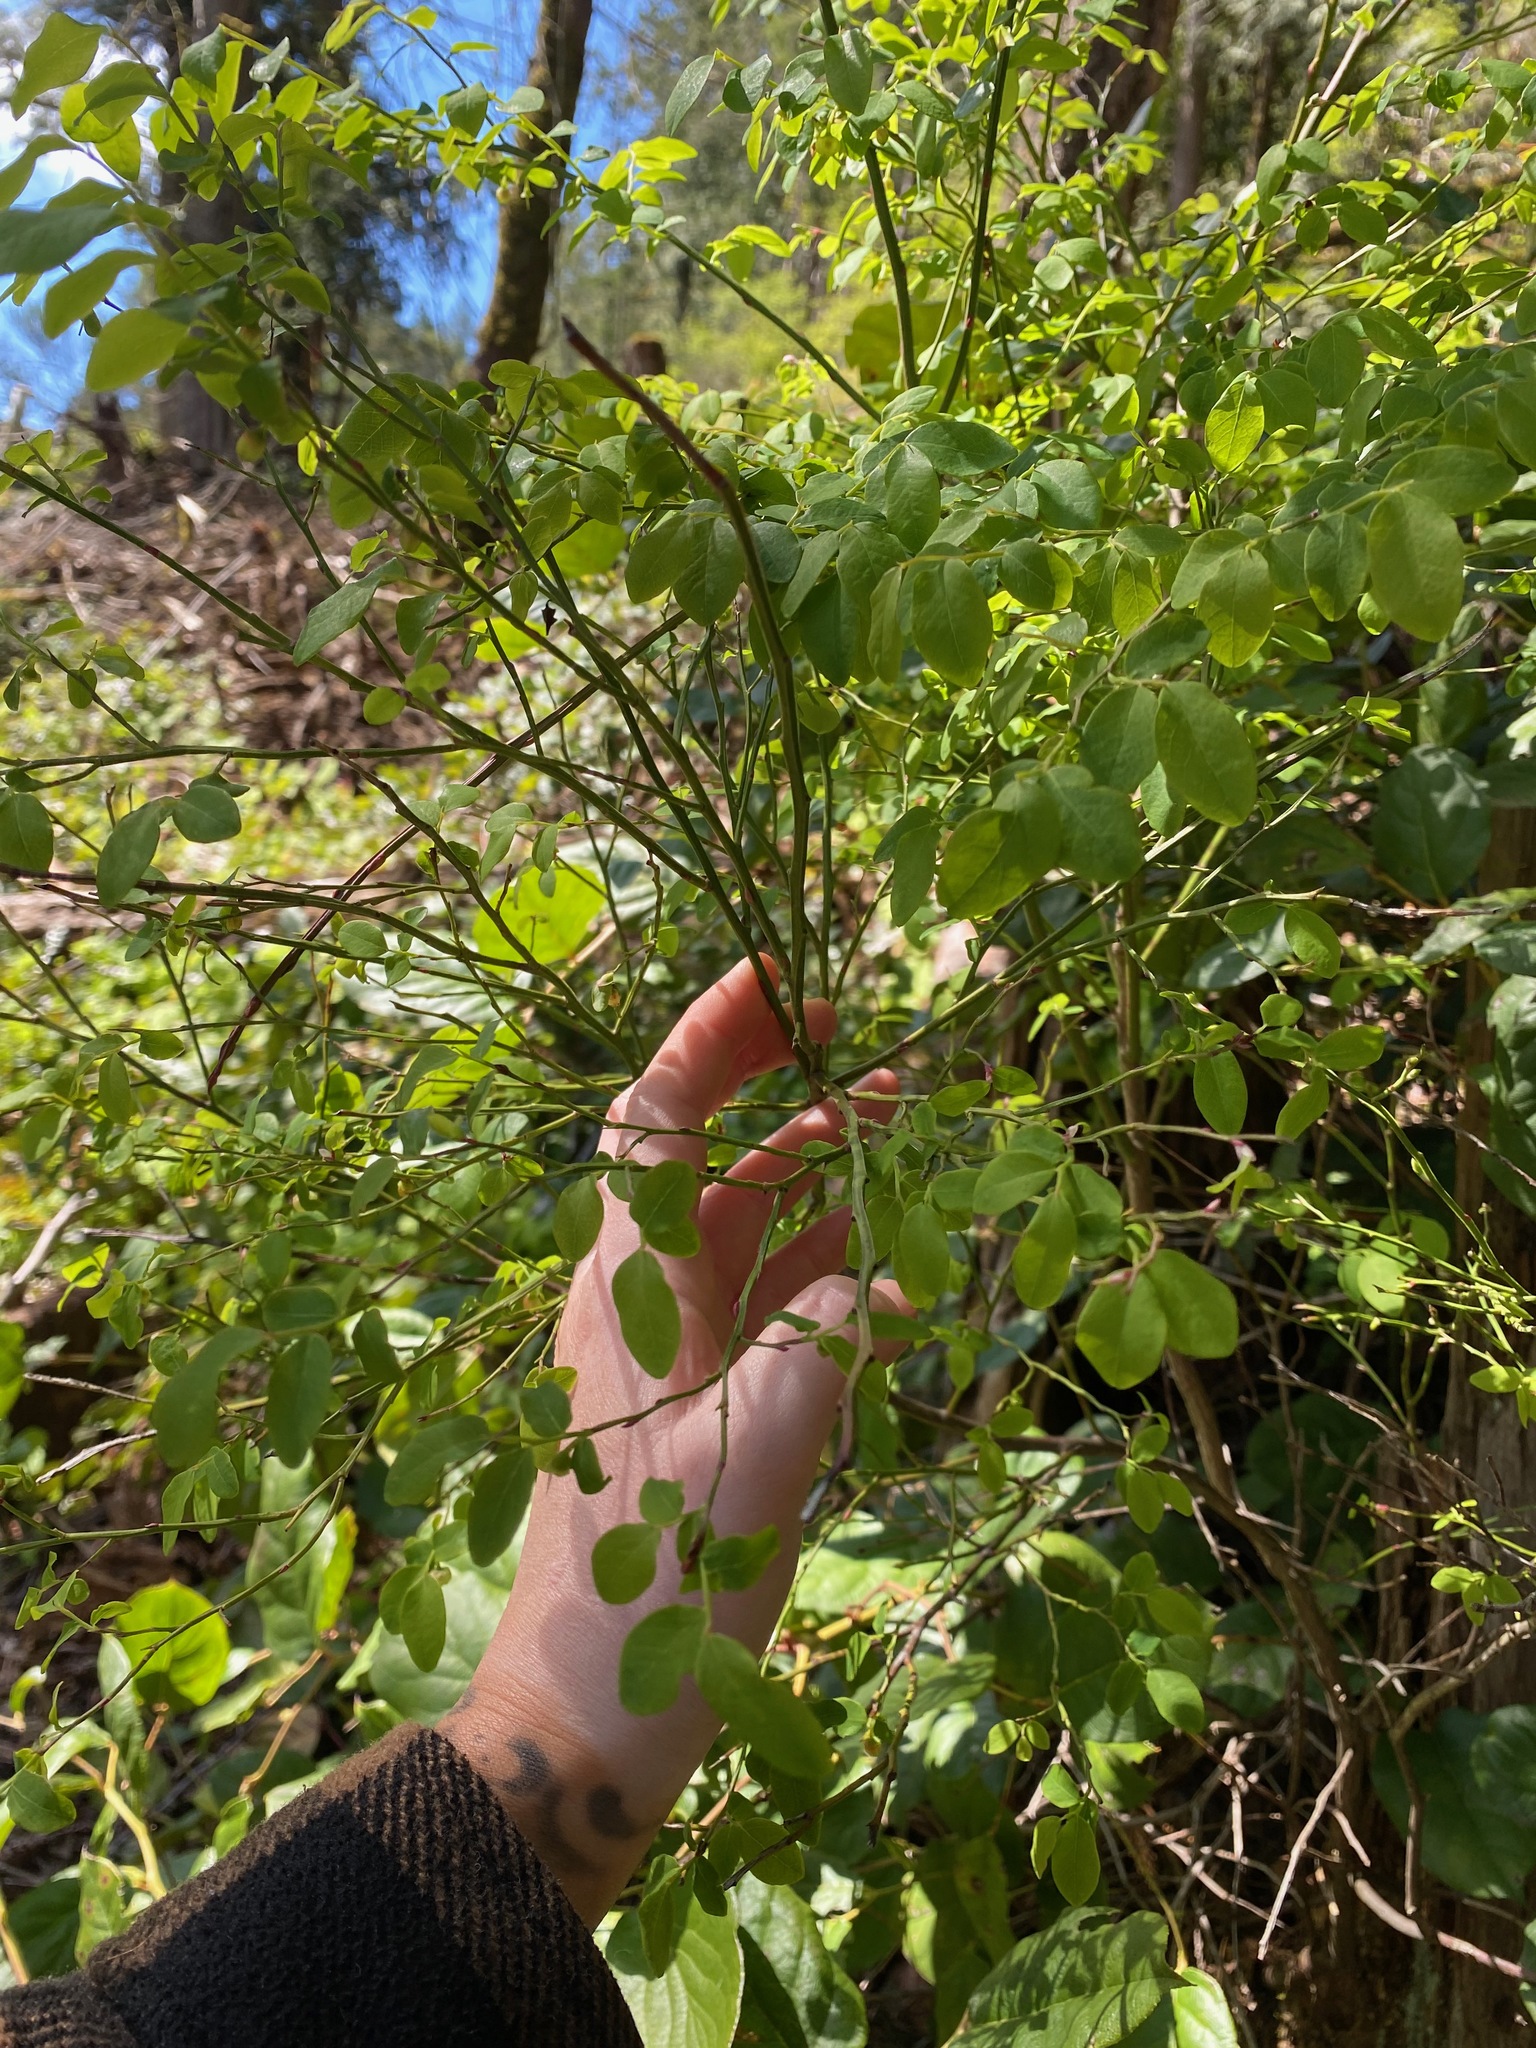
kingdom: Plantae
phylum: Tracheophyta
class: Magnoliopsida
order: Ericales
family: Ericaceae
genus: Vaccinium
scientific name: Vaccinium parvifolium
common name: Red-huckleberry
